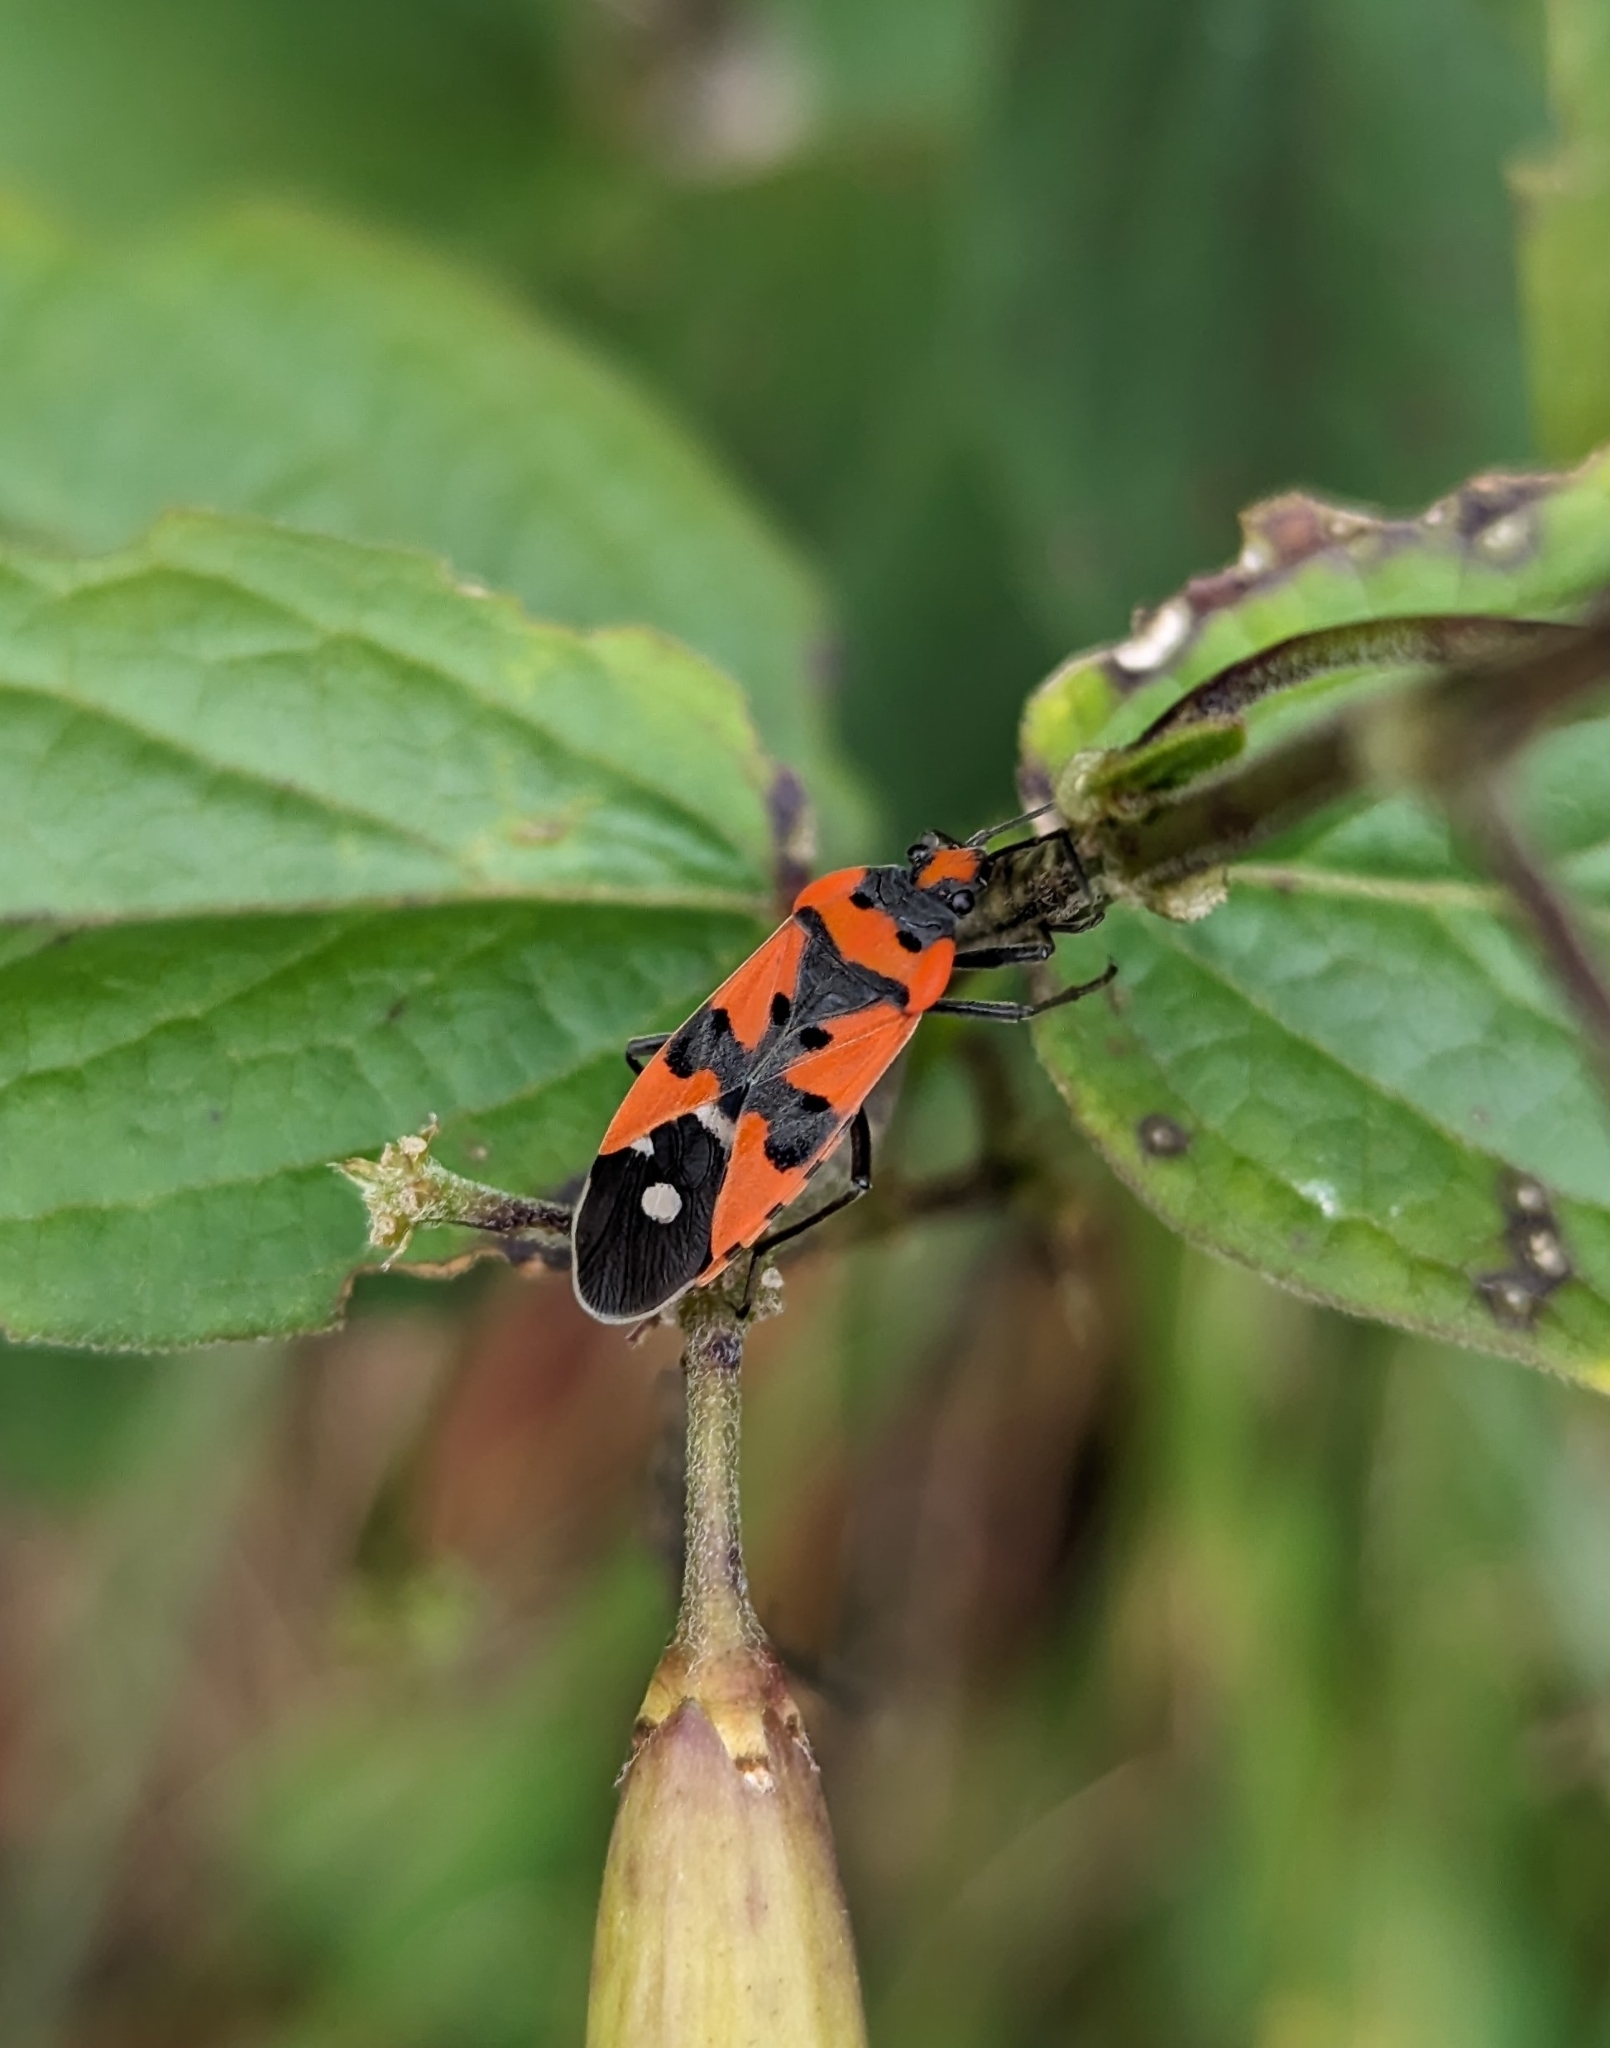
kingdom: Animalia
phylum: Arthropoda
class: Insecta
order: Hemiptera
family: Lygaeidae
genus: Lygaeus
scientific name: Lygaeus equestris
